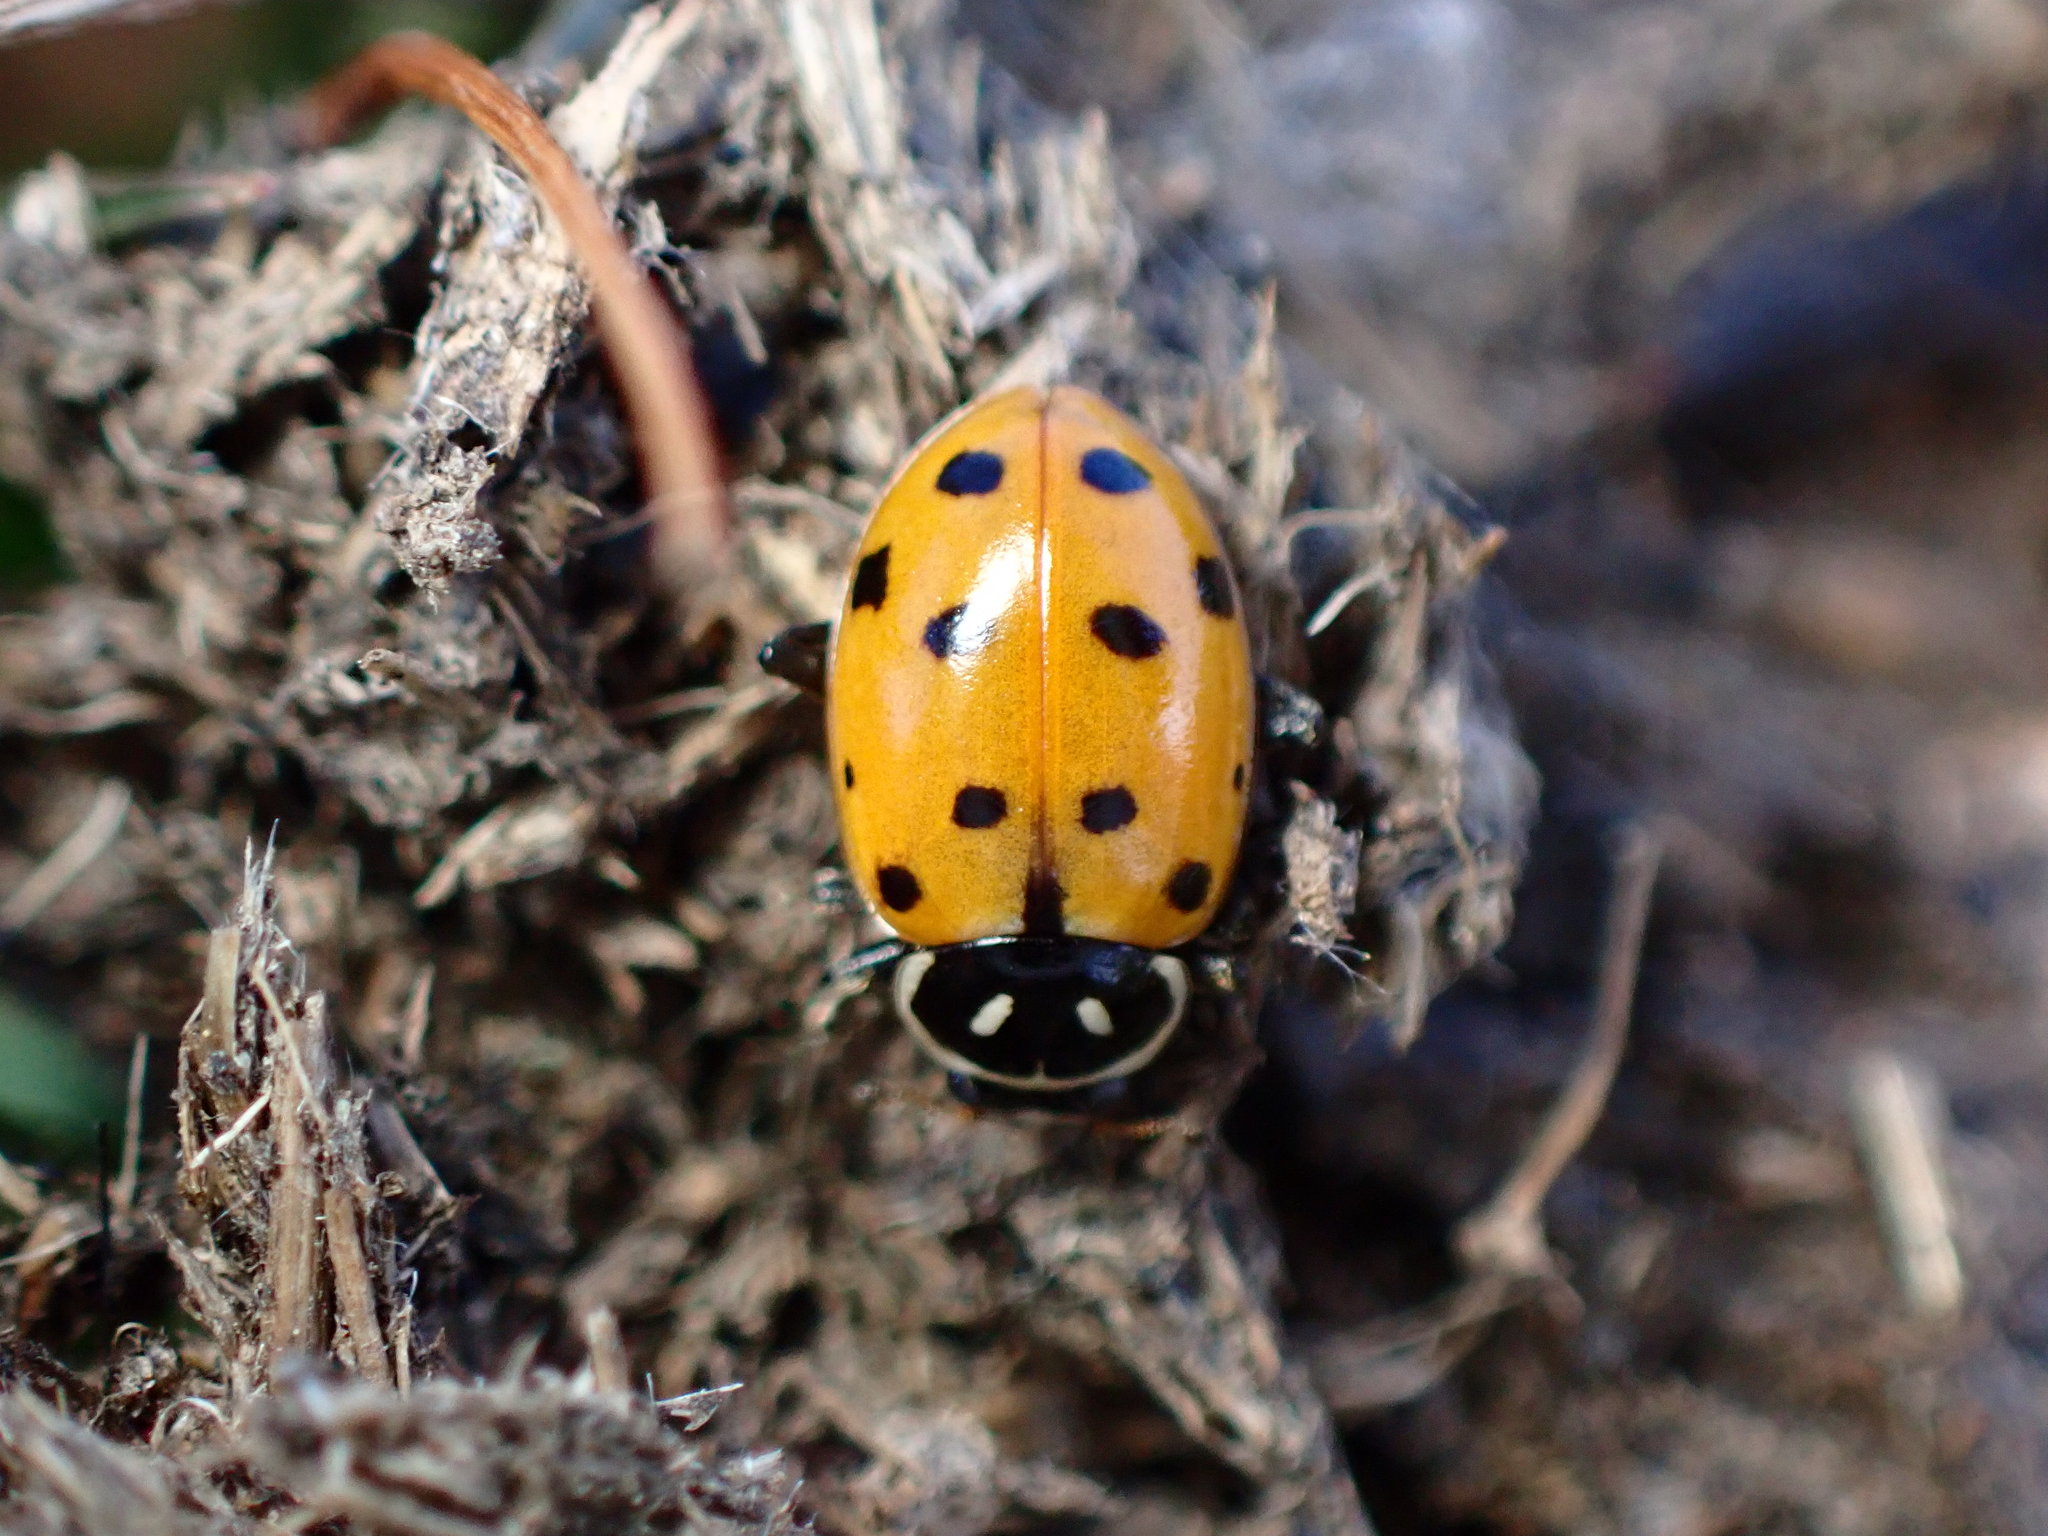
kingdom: Animalia
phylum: Arthropoda
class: Insecta
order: Coleoptera
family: Coccinellidae
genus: Hippodamia
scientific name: Hippodamia convergens
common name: Convergent lady beetle
